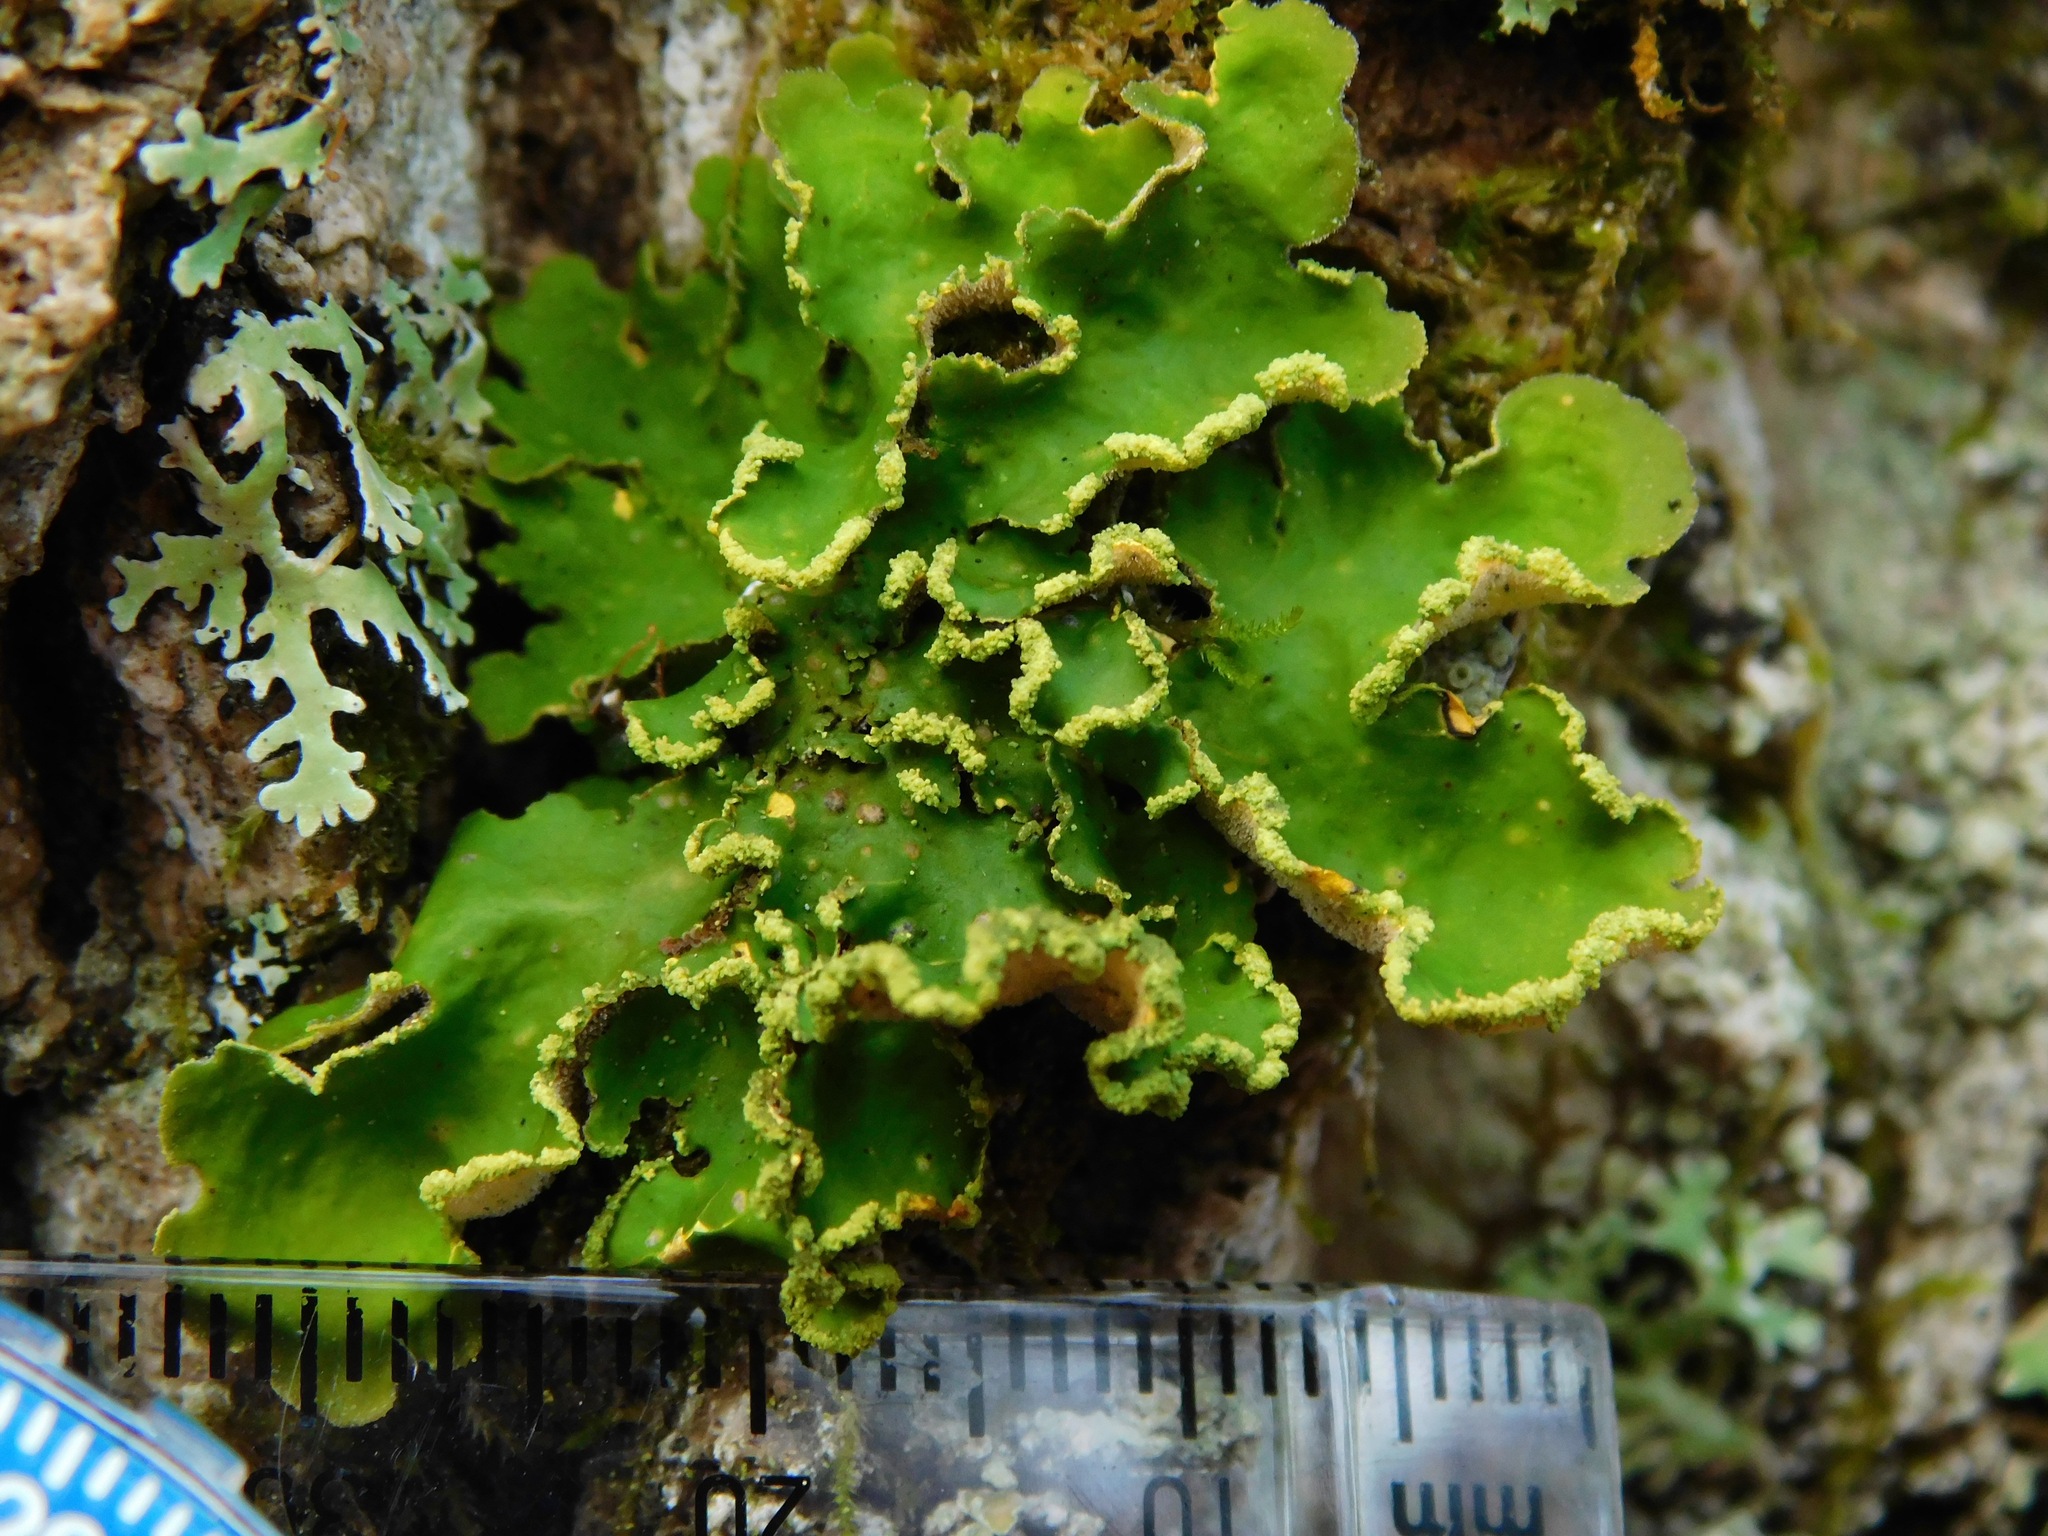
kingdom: Fungi
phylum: Ascomycota
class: Lecanoromycetes
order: Peltigerales
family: Lobariaceae
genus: Pseudocyphellaria
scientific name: Pseudocyphellaria aurata
